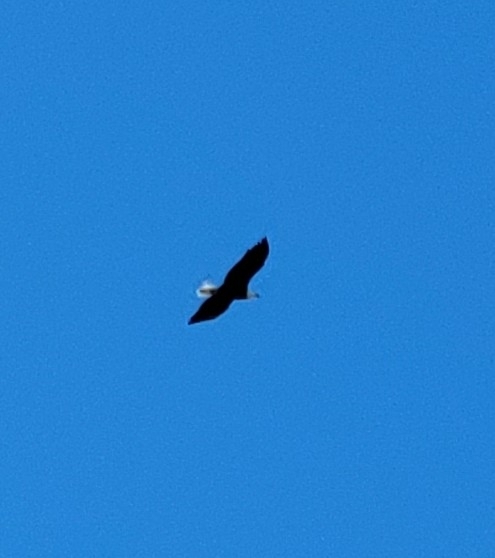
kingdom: Animalia
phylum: Chordata
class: Aves
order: Accipitriformes
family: Accipitridae
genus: Haliaeetus
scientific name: Haliaeetus leucocephalus
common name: Bald eagle
